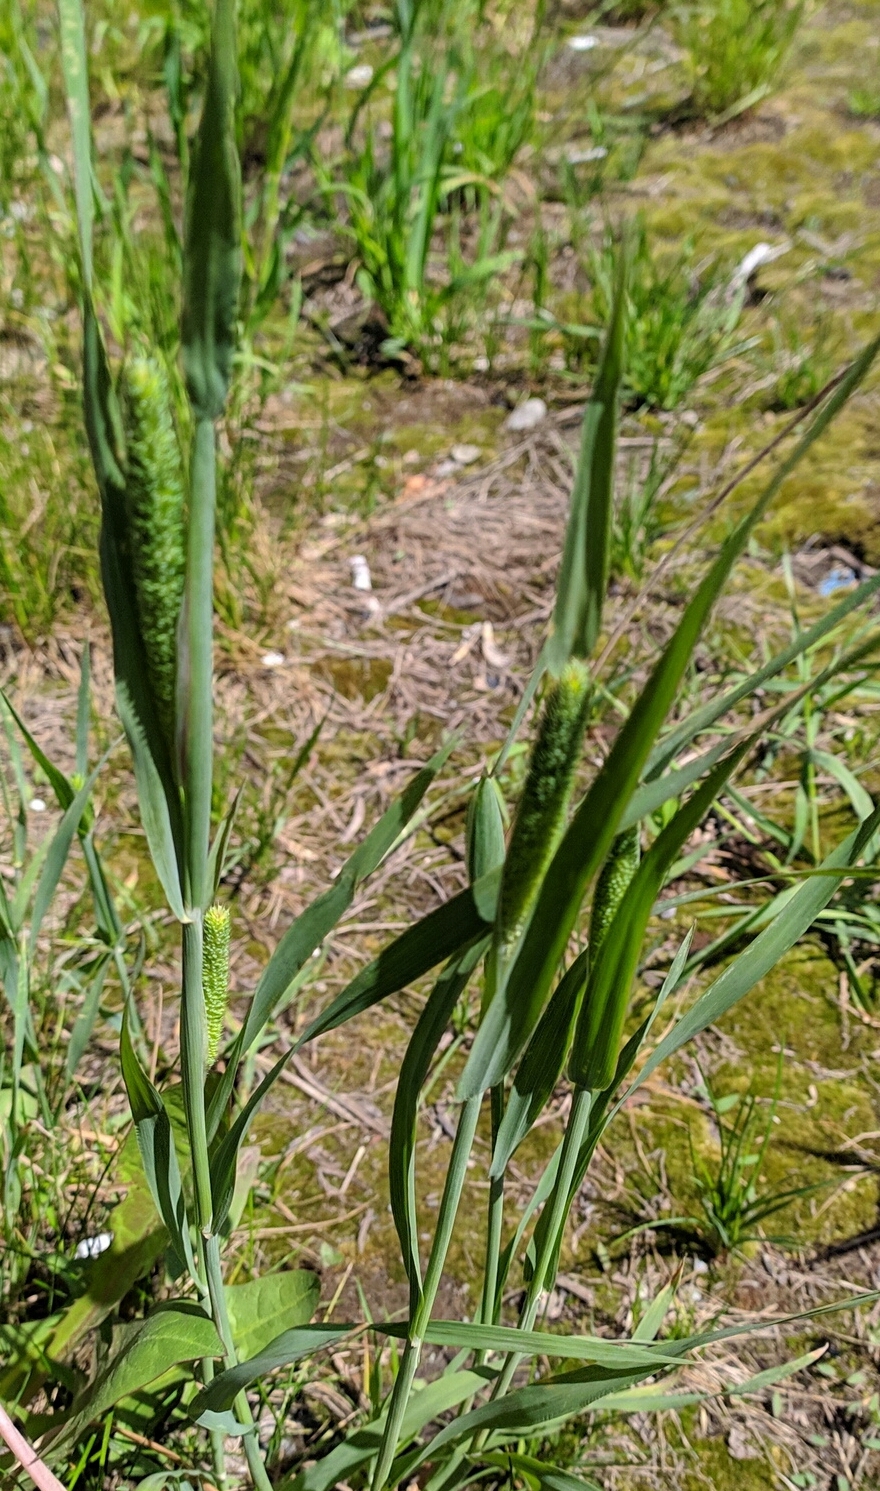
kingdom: Plantae
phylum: Tracheophyta
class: Liliopsida
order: Poales
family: Poaceae
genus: Phleum
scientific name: Phleum pratense
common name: Timothy grass
